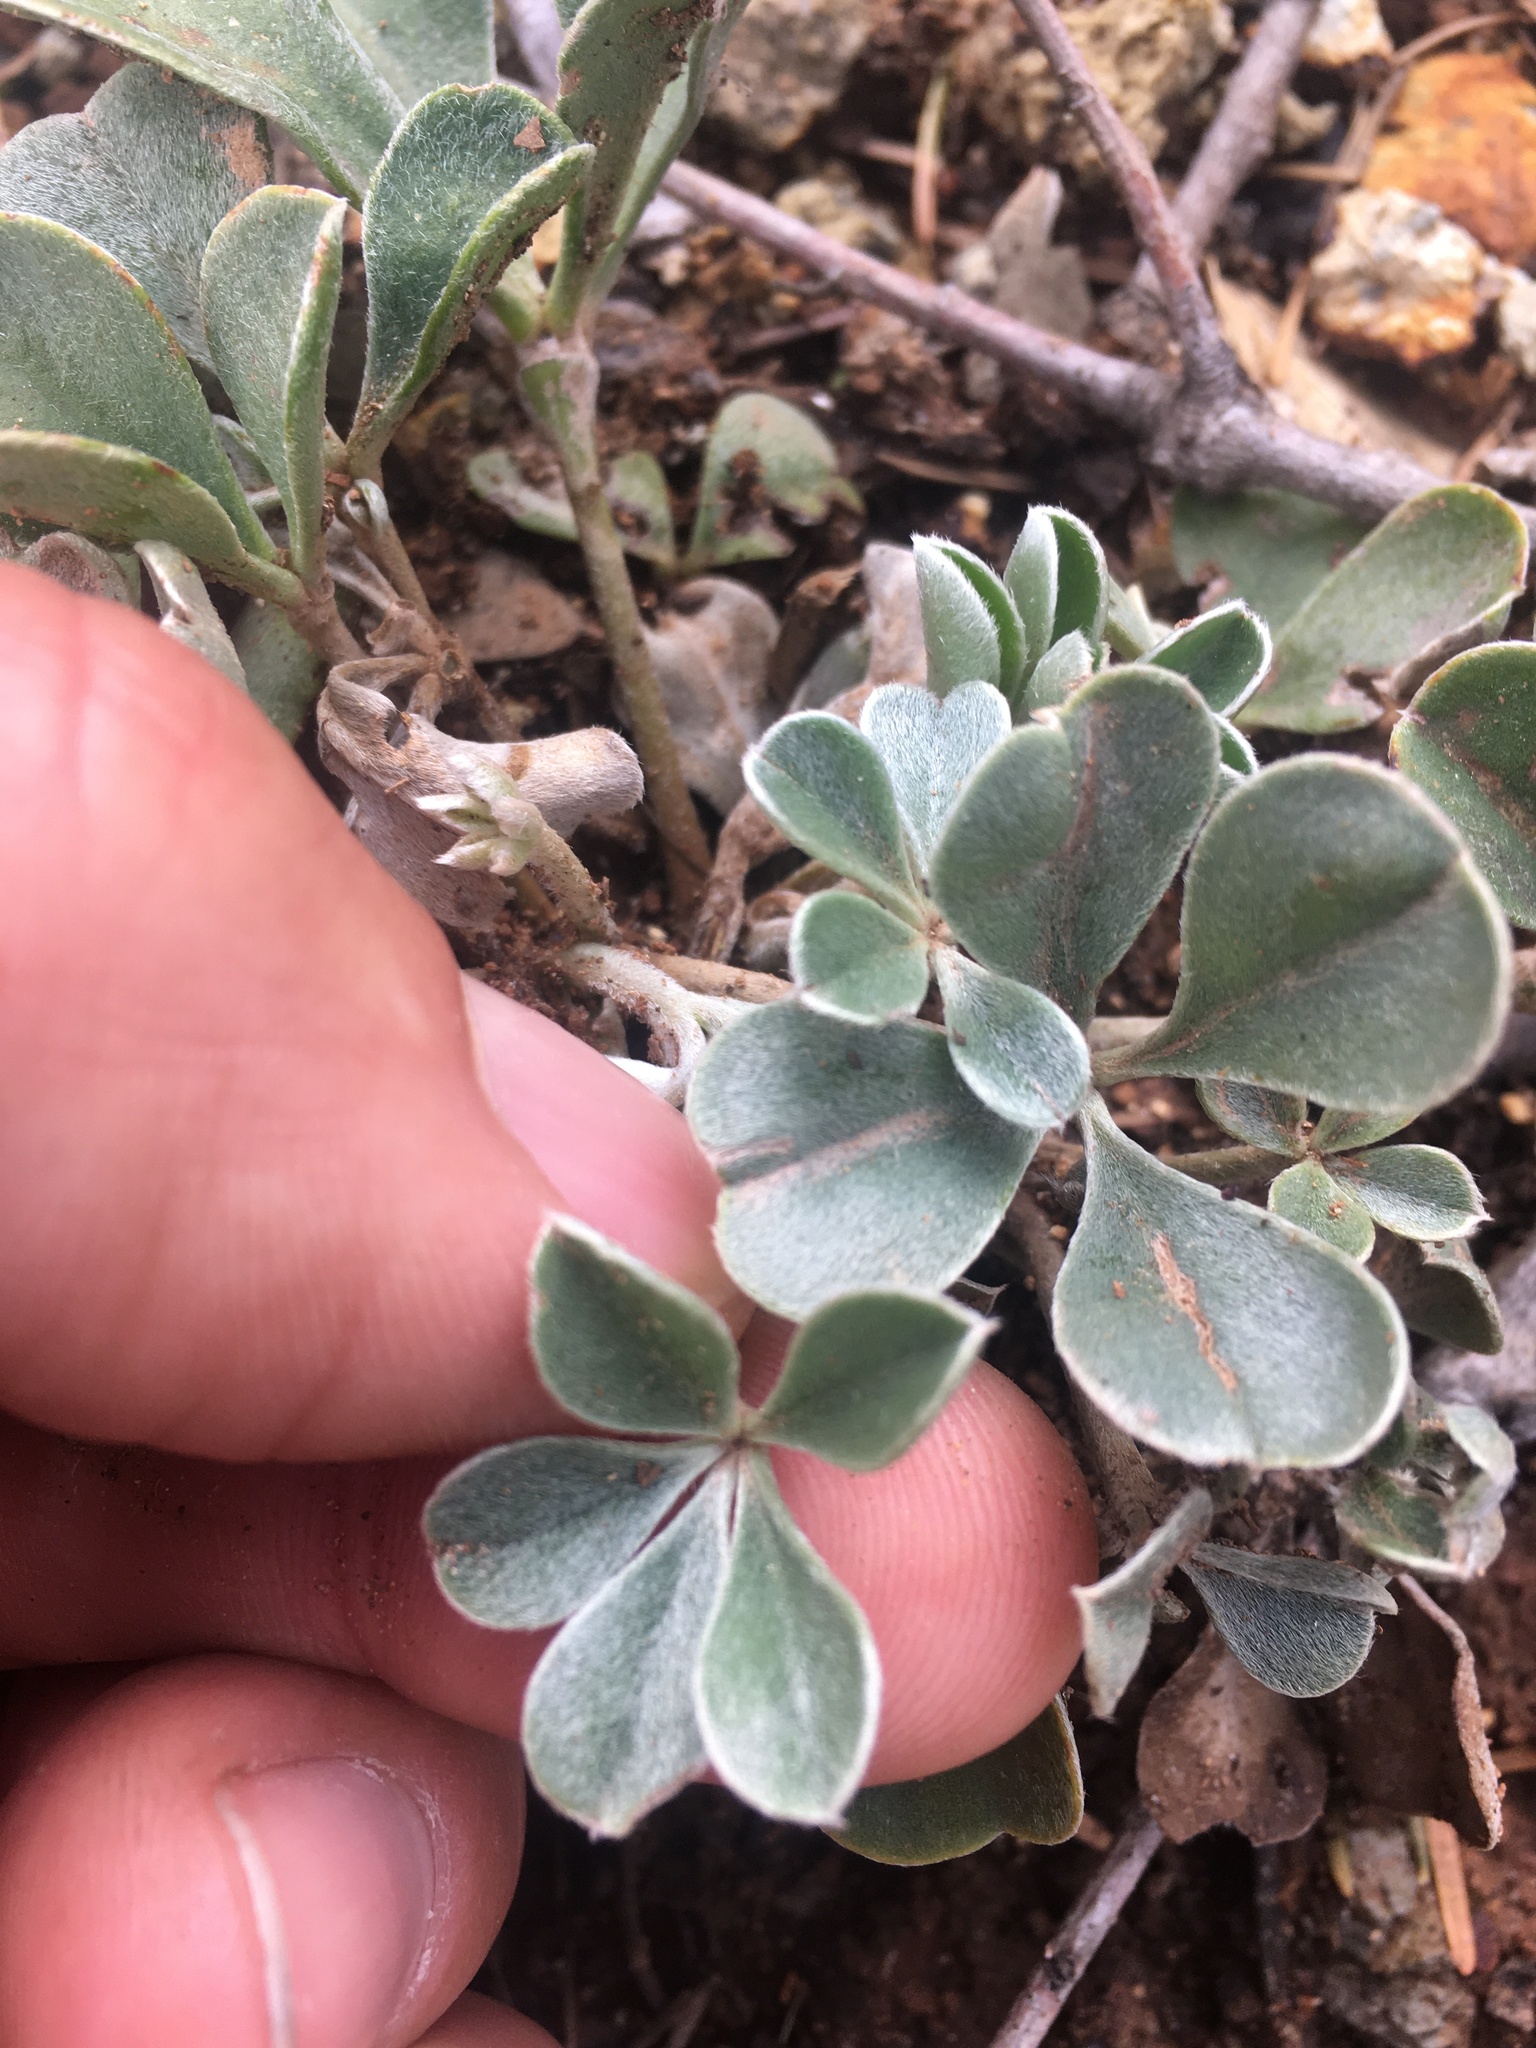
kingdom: Plantae
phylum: Tracheophyta
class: Magnoliopsida
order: Fabales
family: Fabaceae
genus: Lupinus
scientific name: Lupinus sericatus
